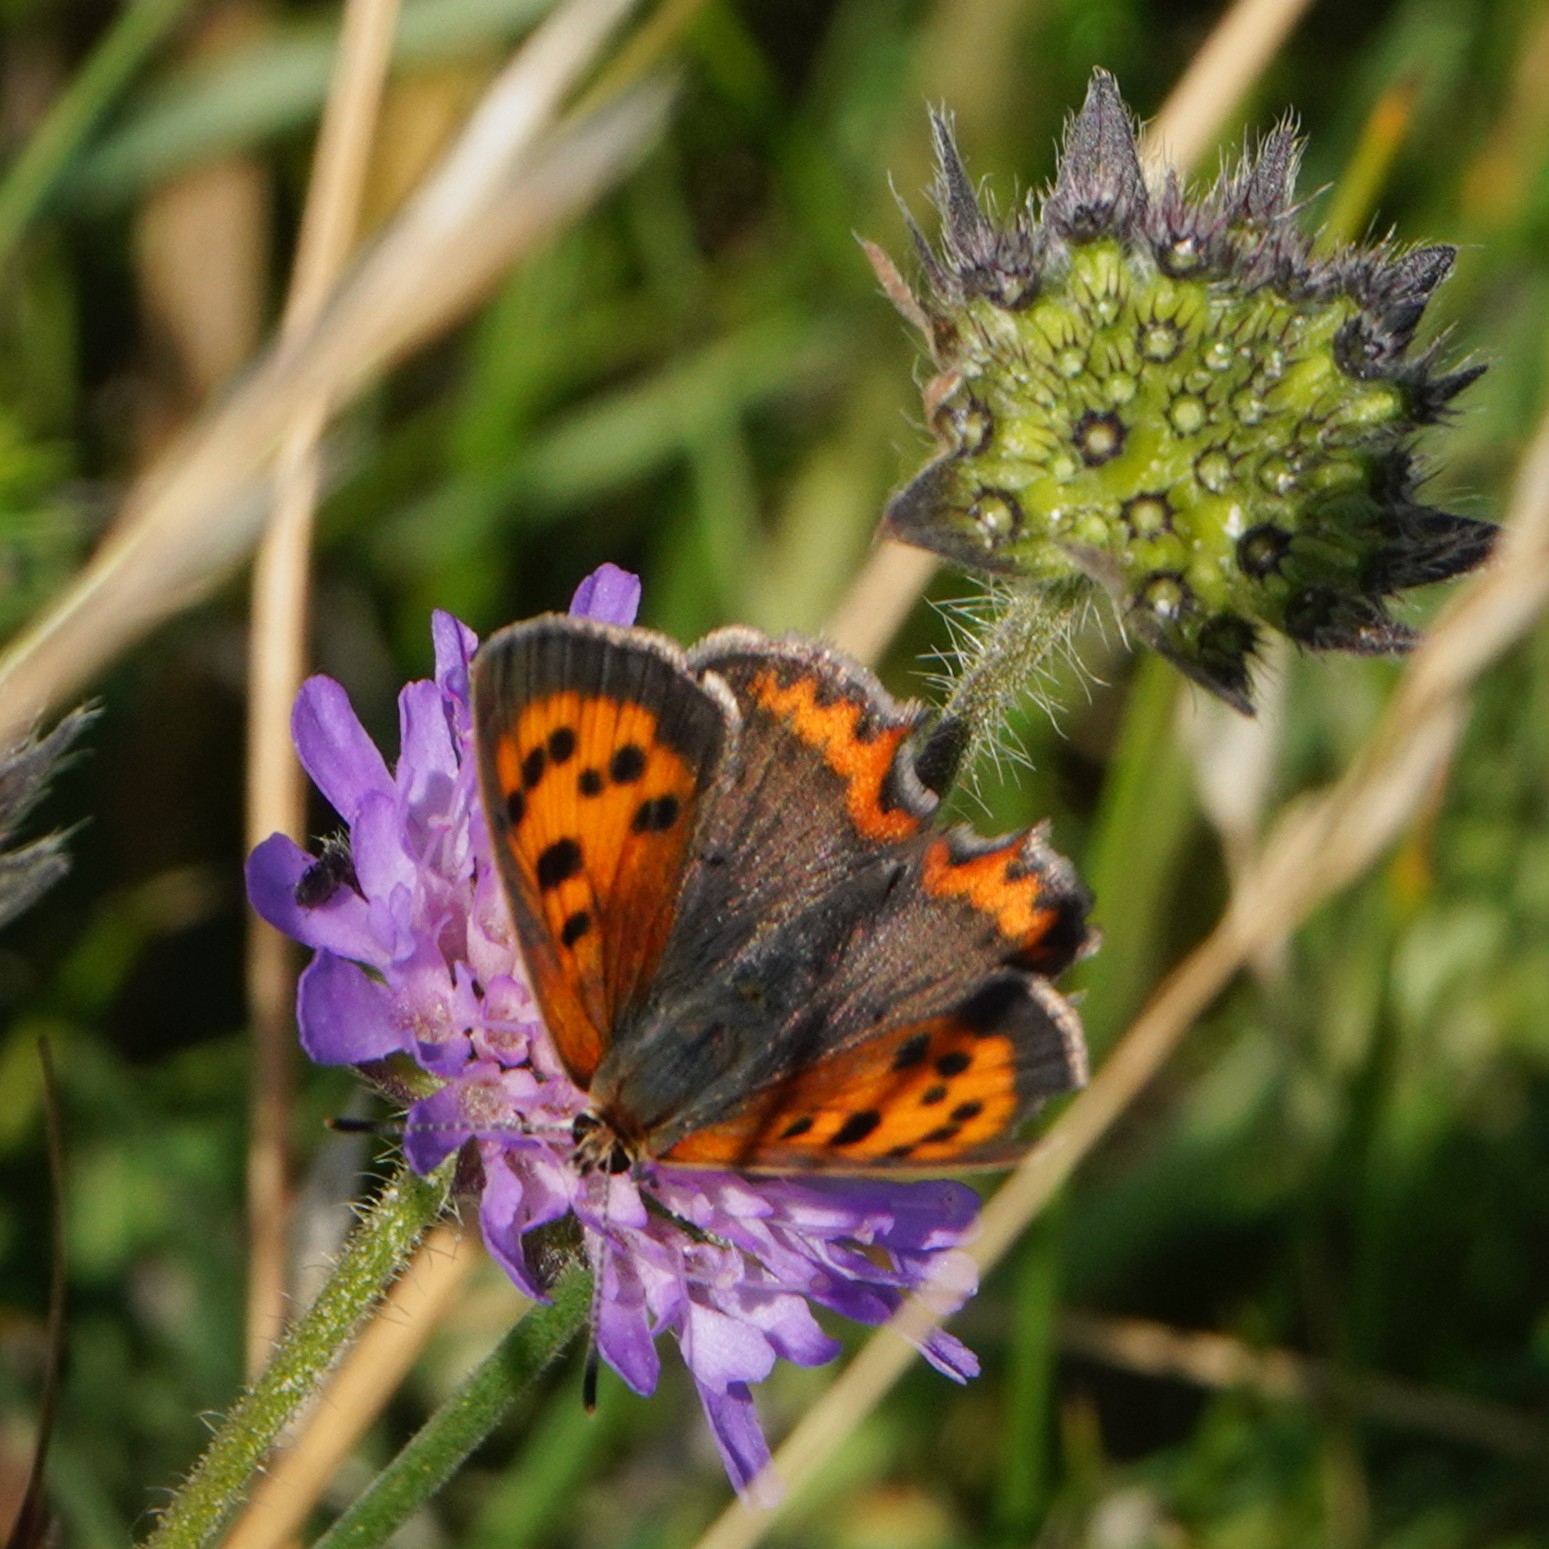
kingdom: Animalia
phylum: Arthropoda
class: Insecta
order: Lepidoptera
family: Lycaenidae
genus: Lycaena
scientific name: Lycaena phlaeas
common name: Small copper
